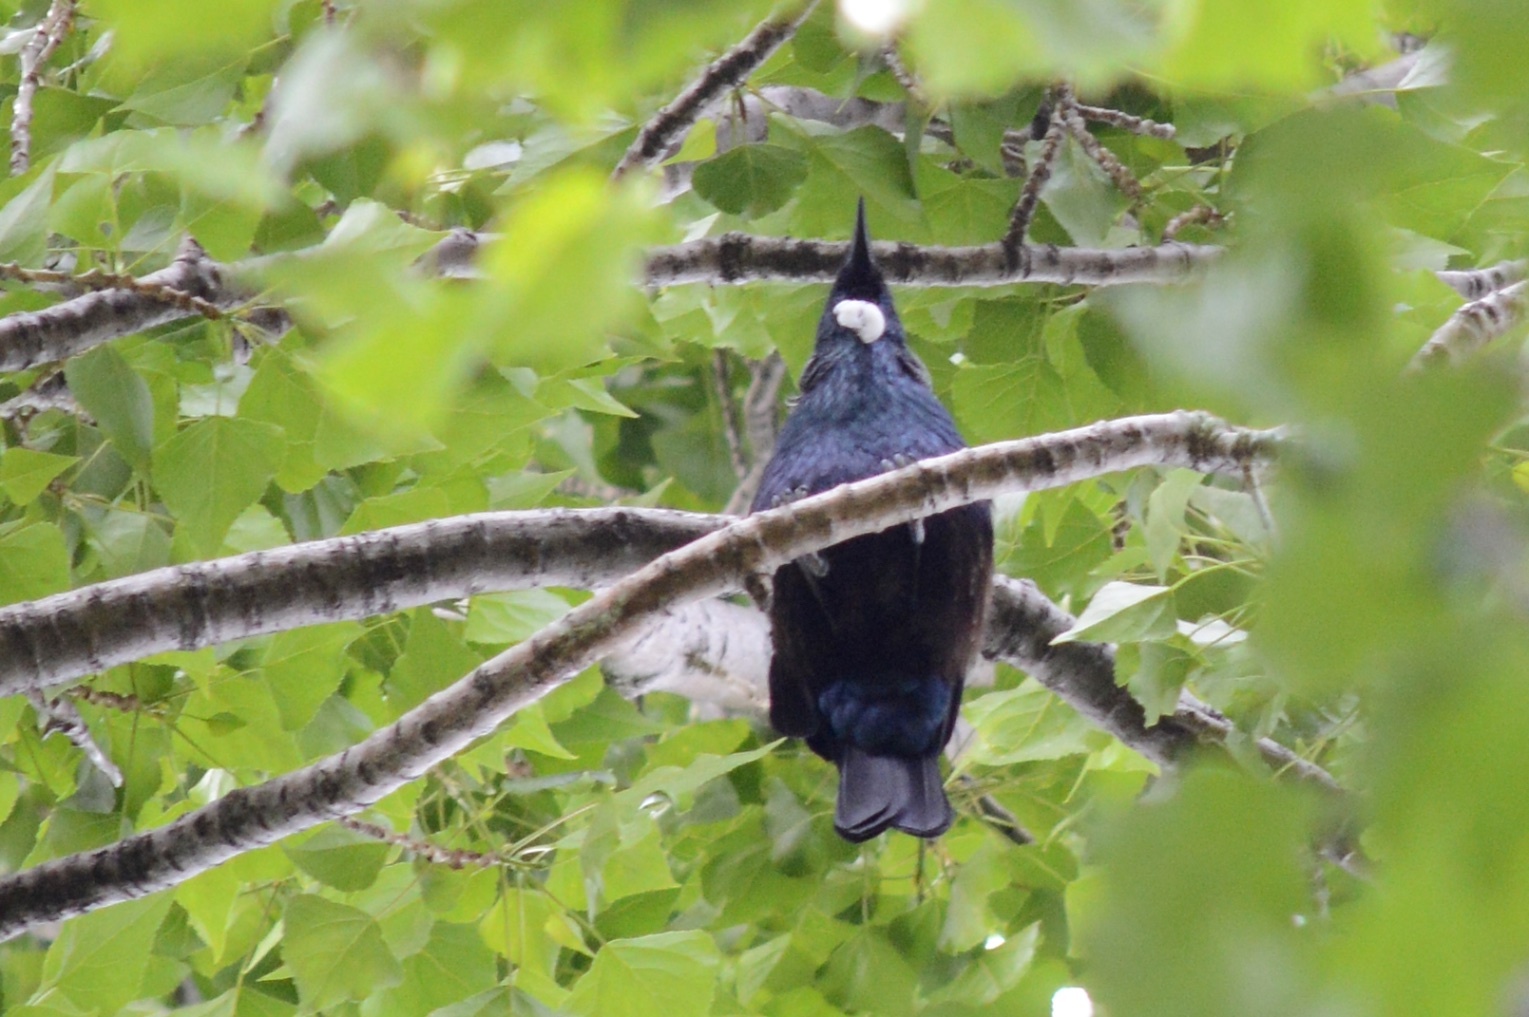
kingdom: Animalia
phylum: Chordata
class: Aves
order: Passeriformes
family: Meliphagidae
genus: Prosthemadera
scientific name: Prosthemadera novaeseelandiae
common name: Tui
